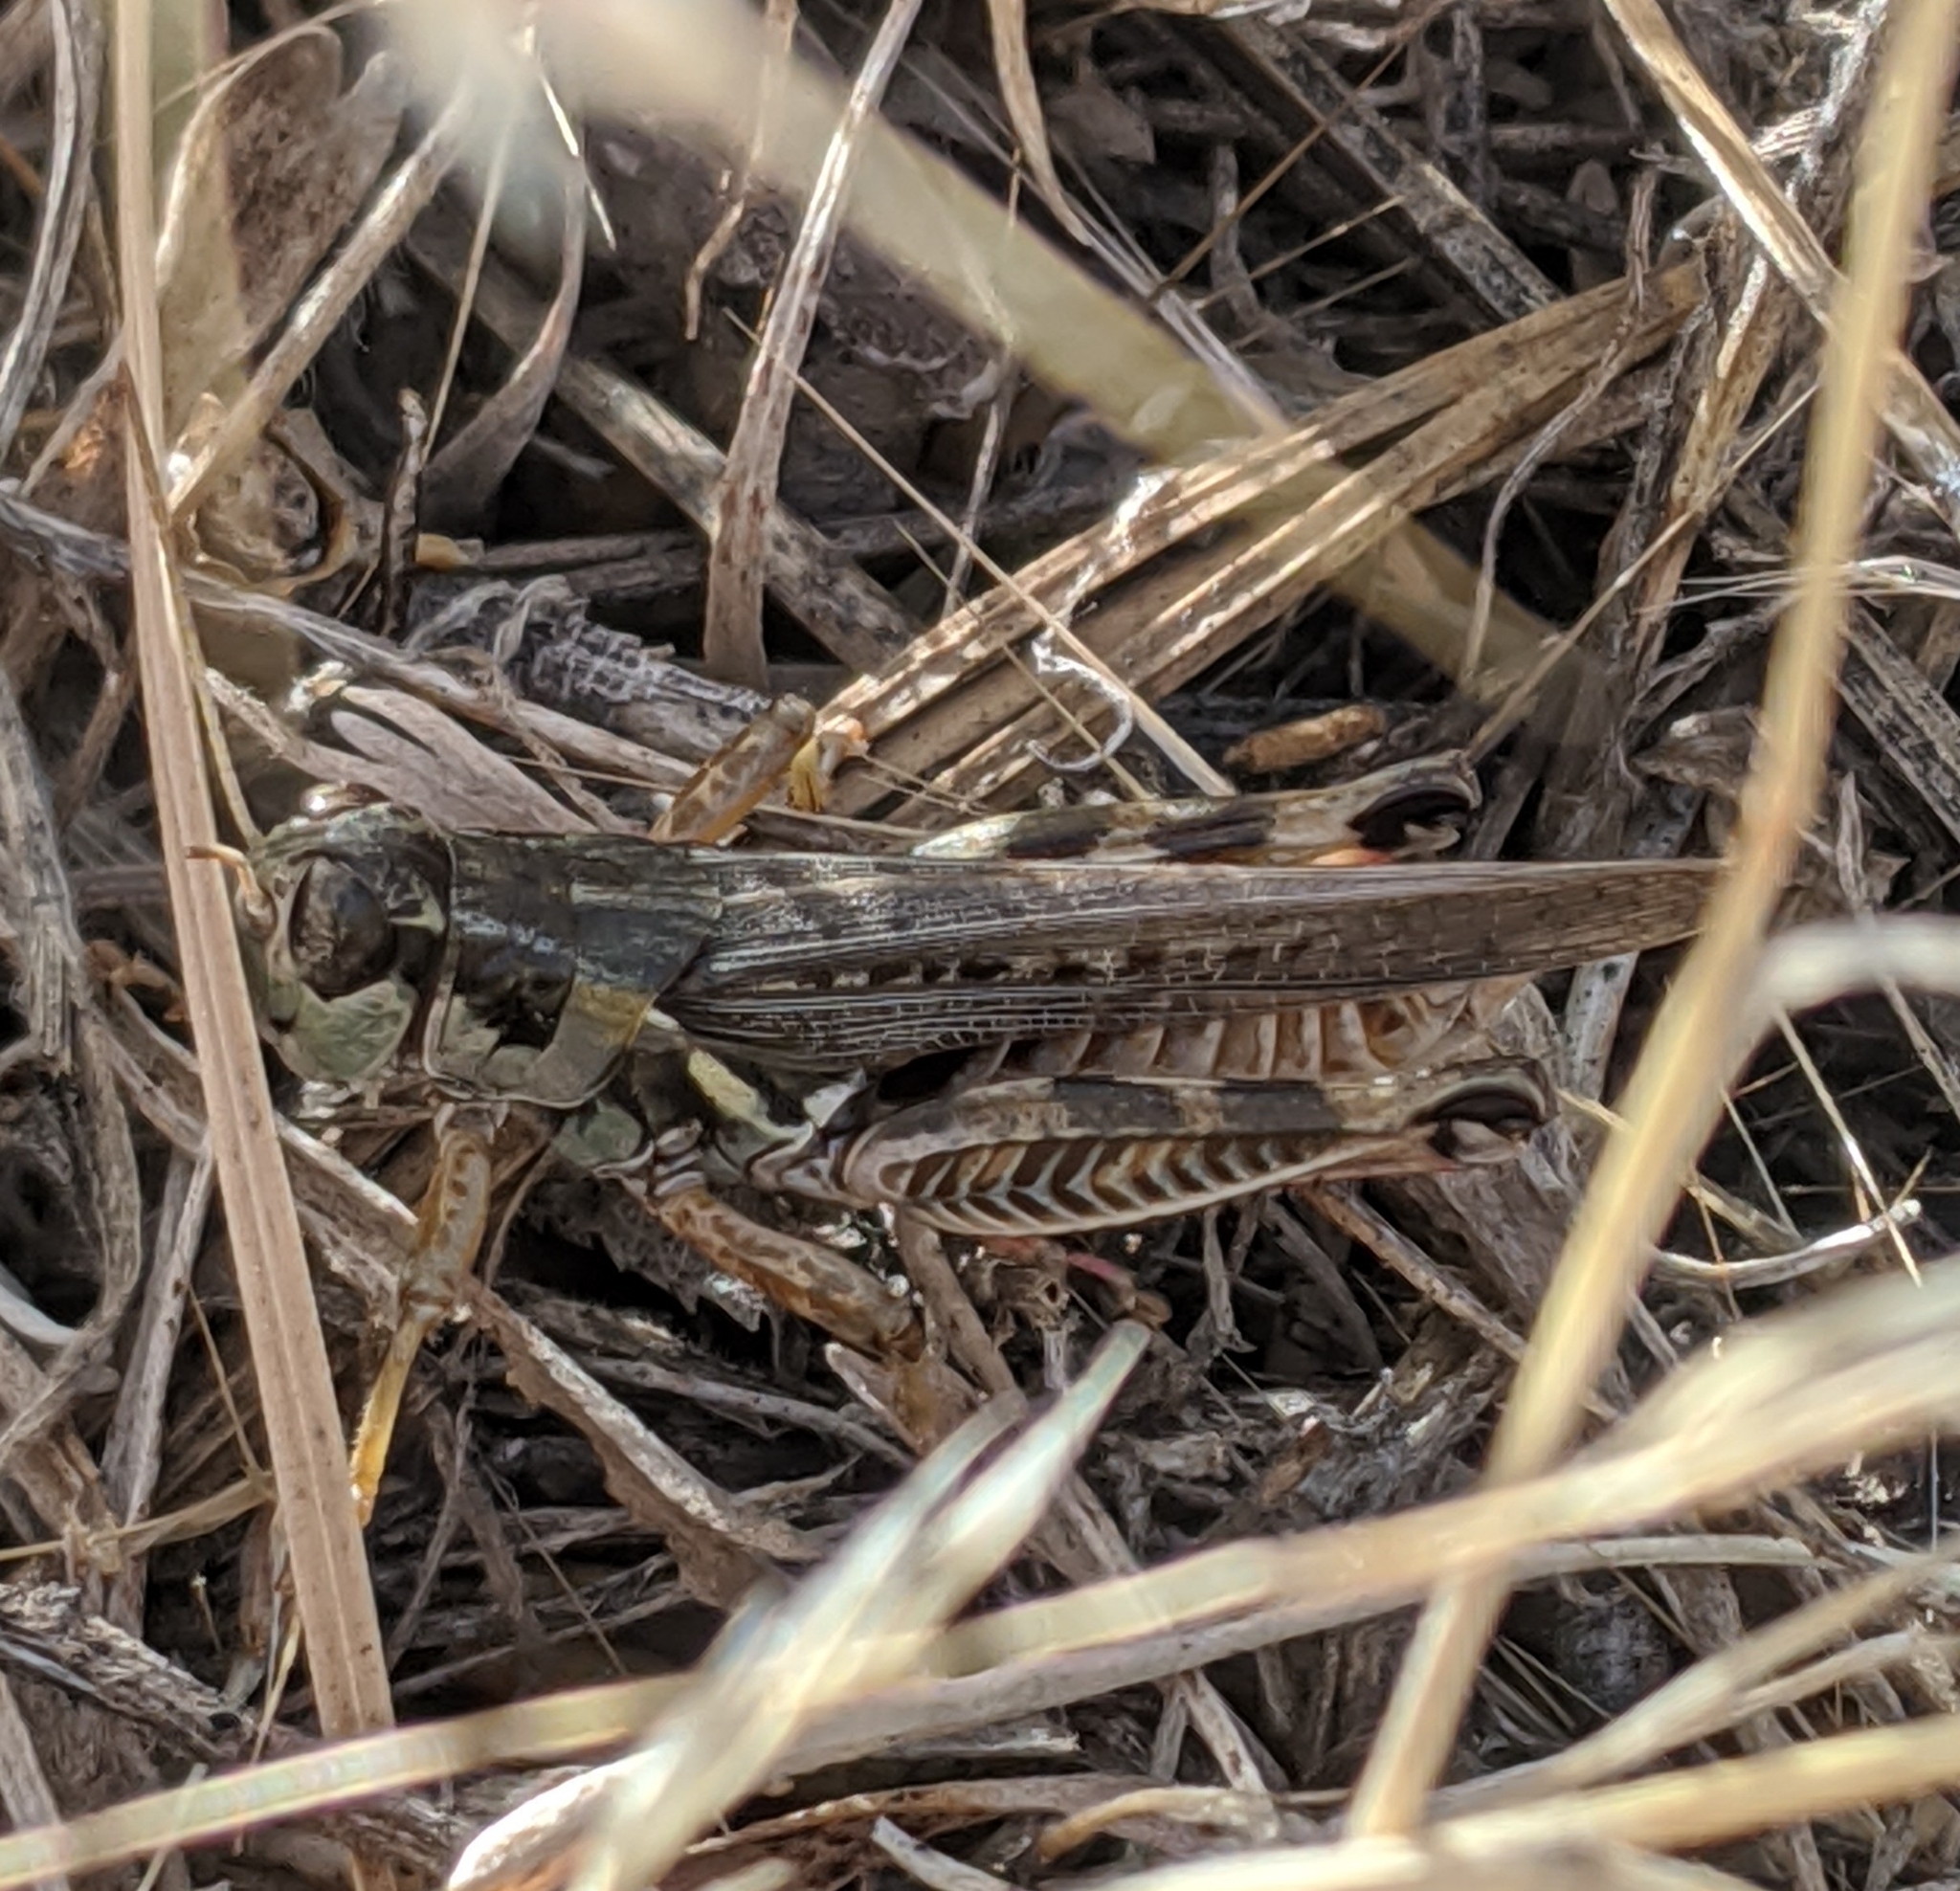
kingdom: Animalia
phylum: Arthropoda
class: Insecta
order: Orthoptera
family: Acrididae
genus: Melanoplus
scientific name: Melanoplus sanguinipes
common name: Migratory grasshopper
